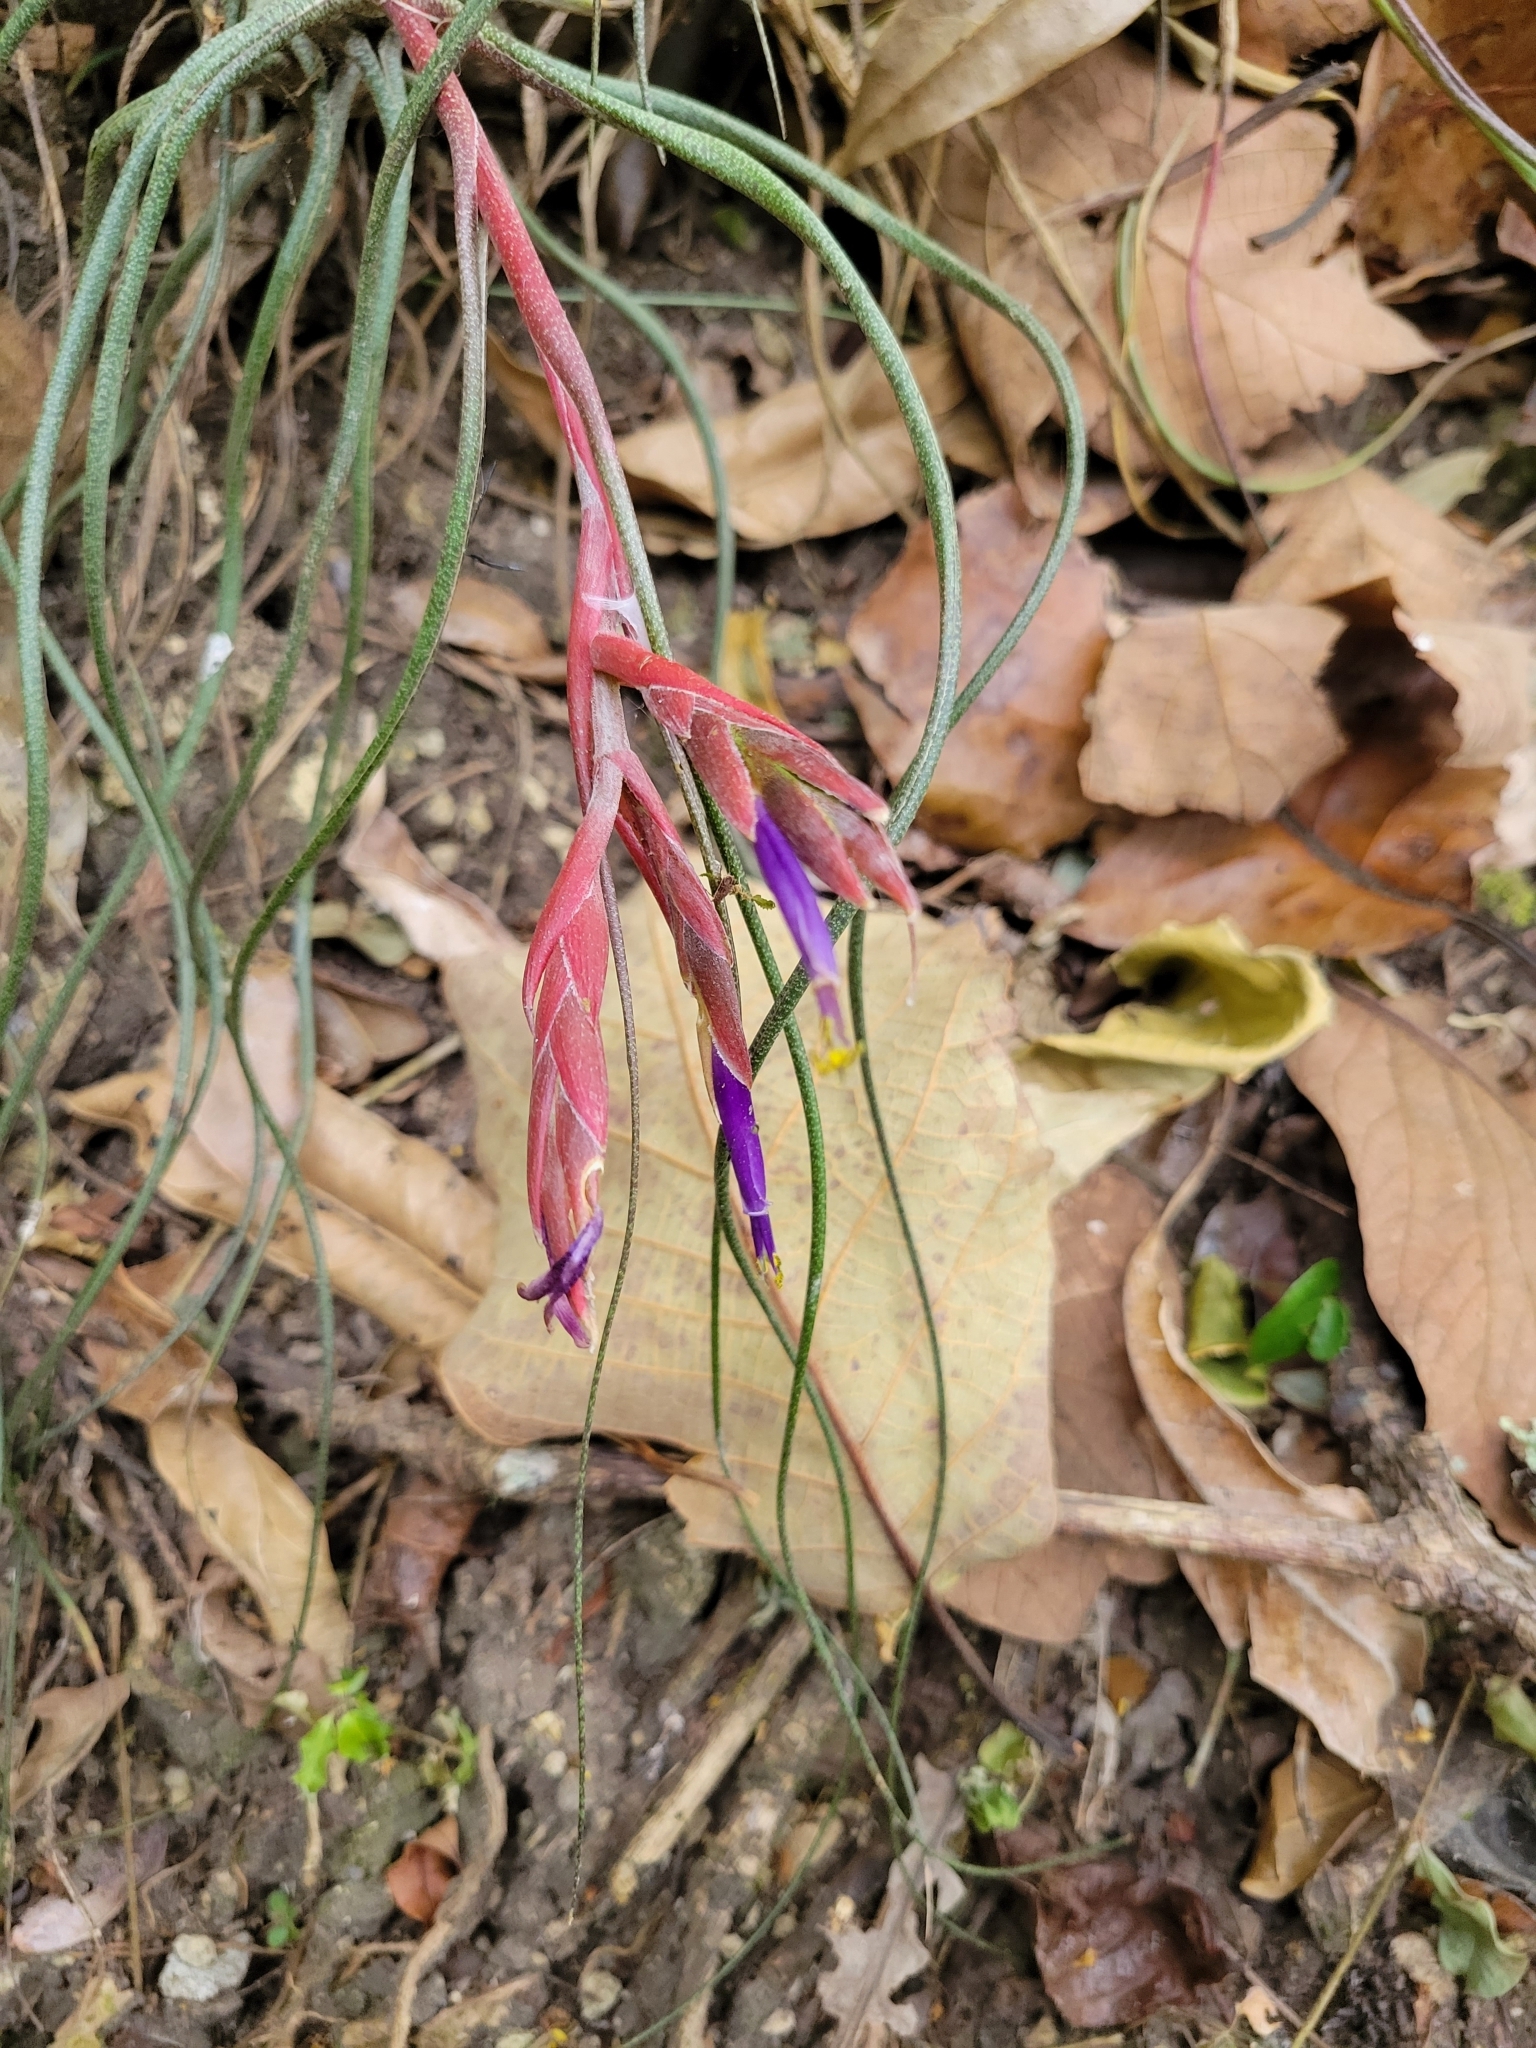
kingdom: Plantae
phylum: Tracheophyta
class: Liliopsida
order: Poales
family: Bromeliaceae
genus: Tillandsia
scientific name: Tillandsia butzii
